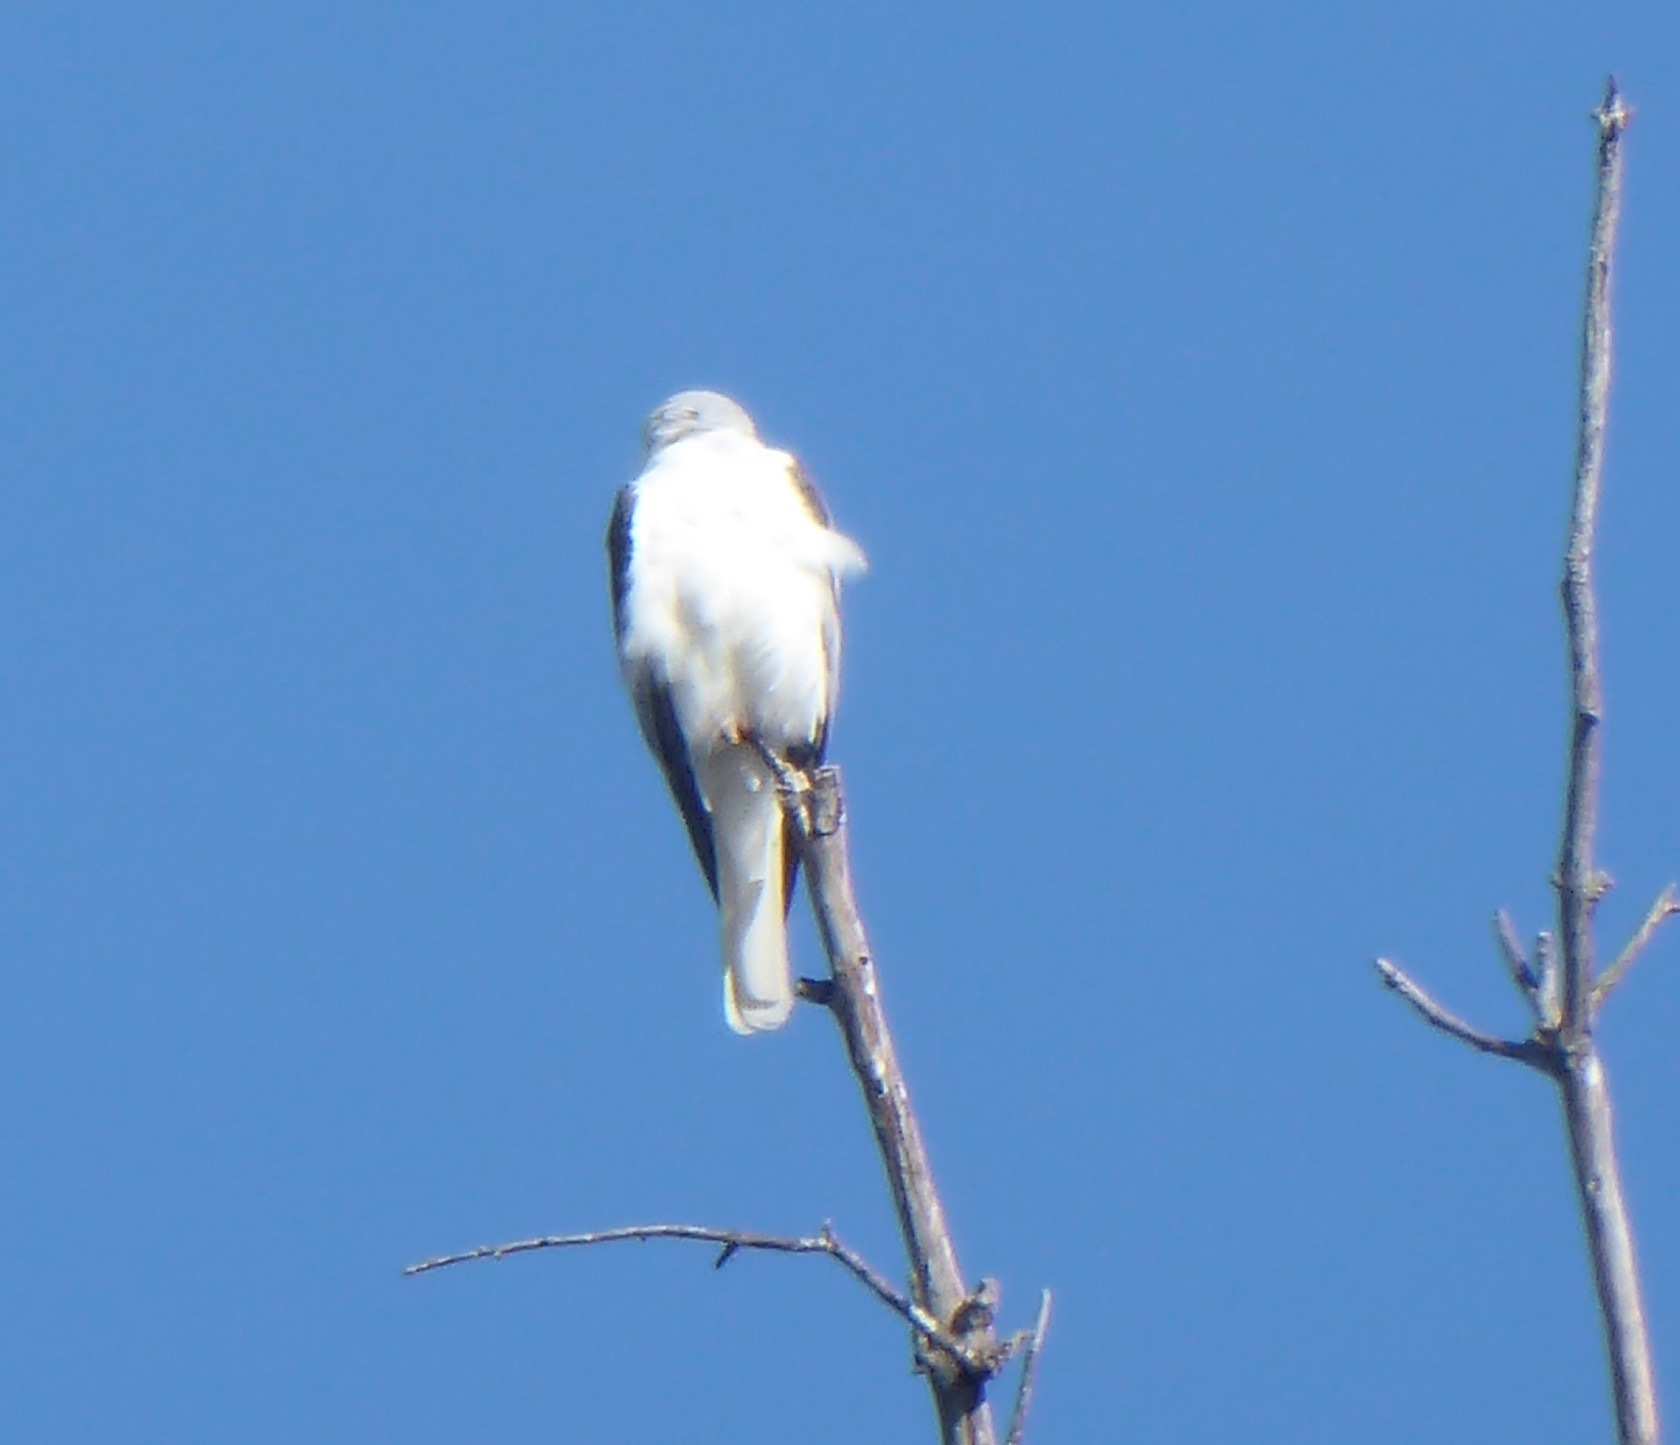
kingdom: Animalia
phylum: Chordata
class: Aves
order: Accipitriformes
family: Accipitridae
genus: Elanus
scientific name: Elanus leucurus
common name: White-tailed kite
